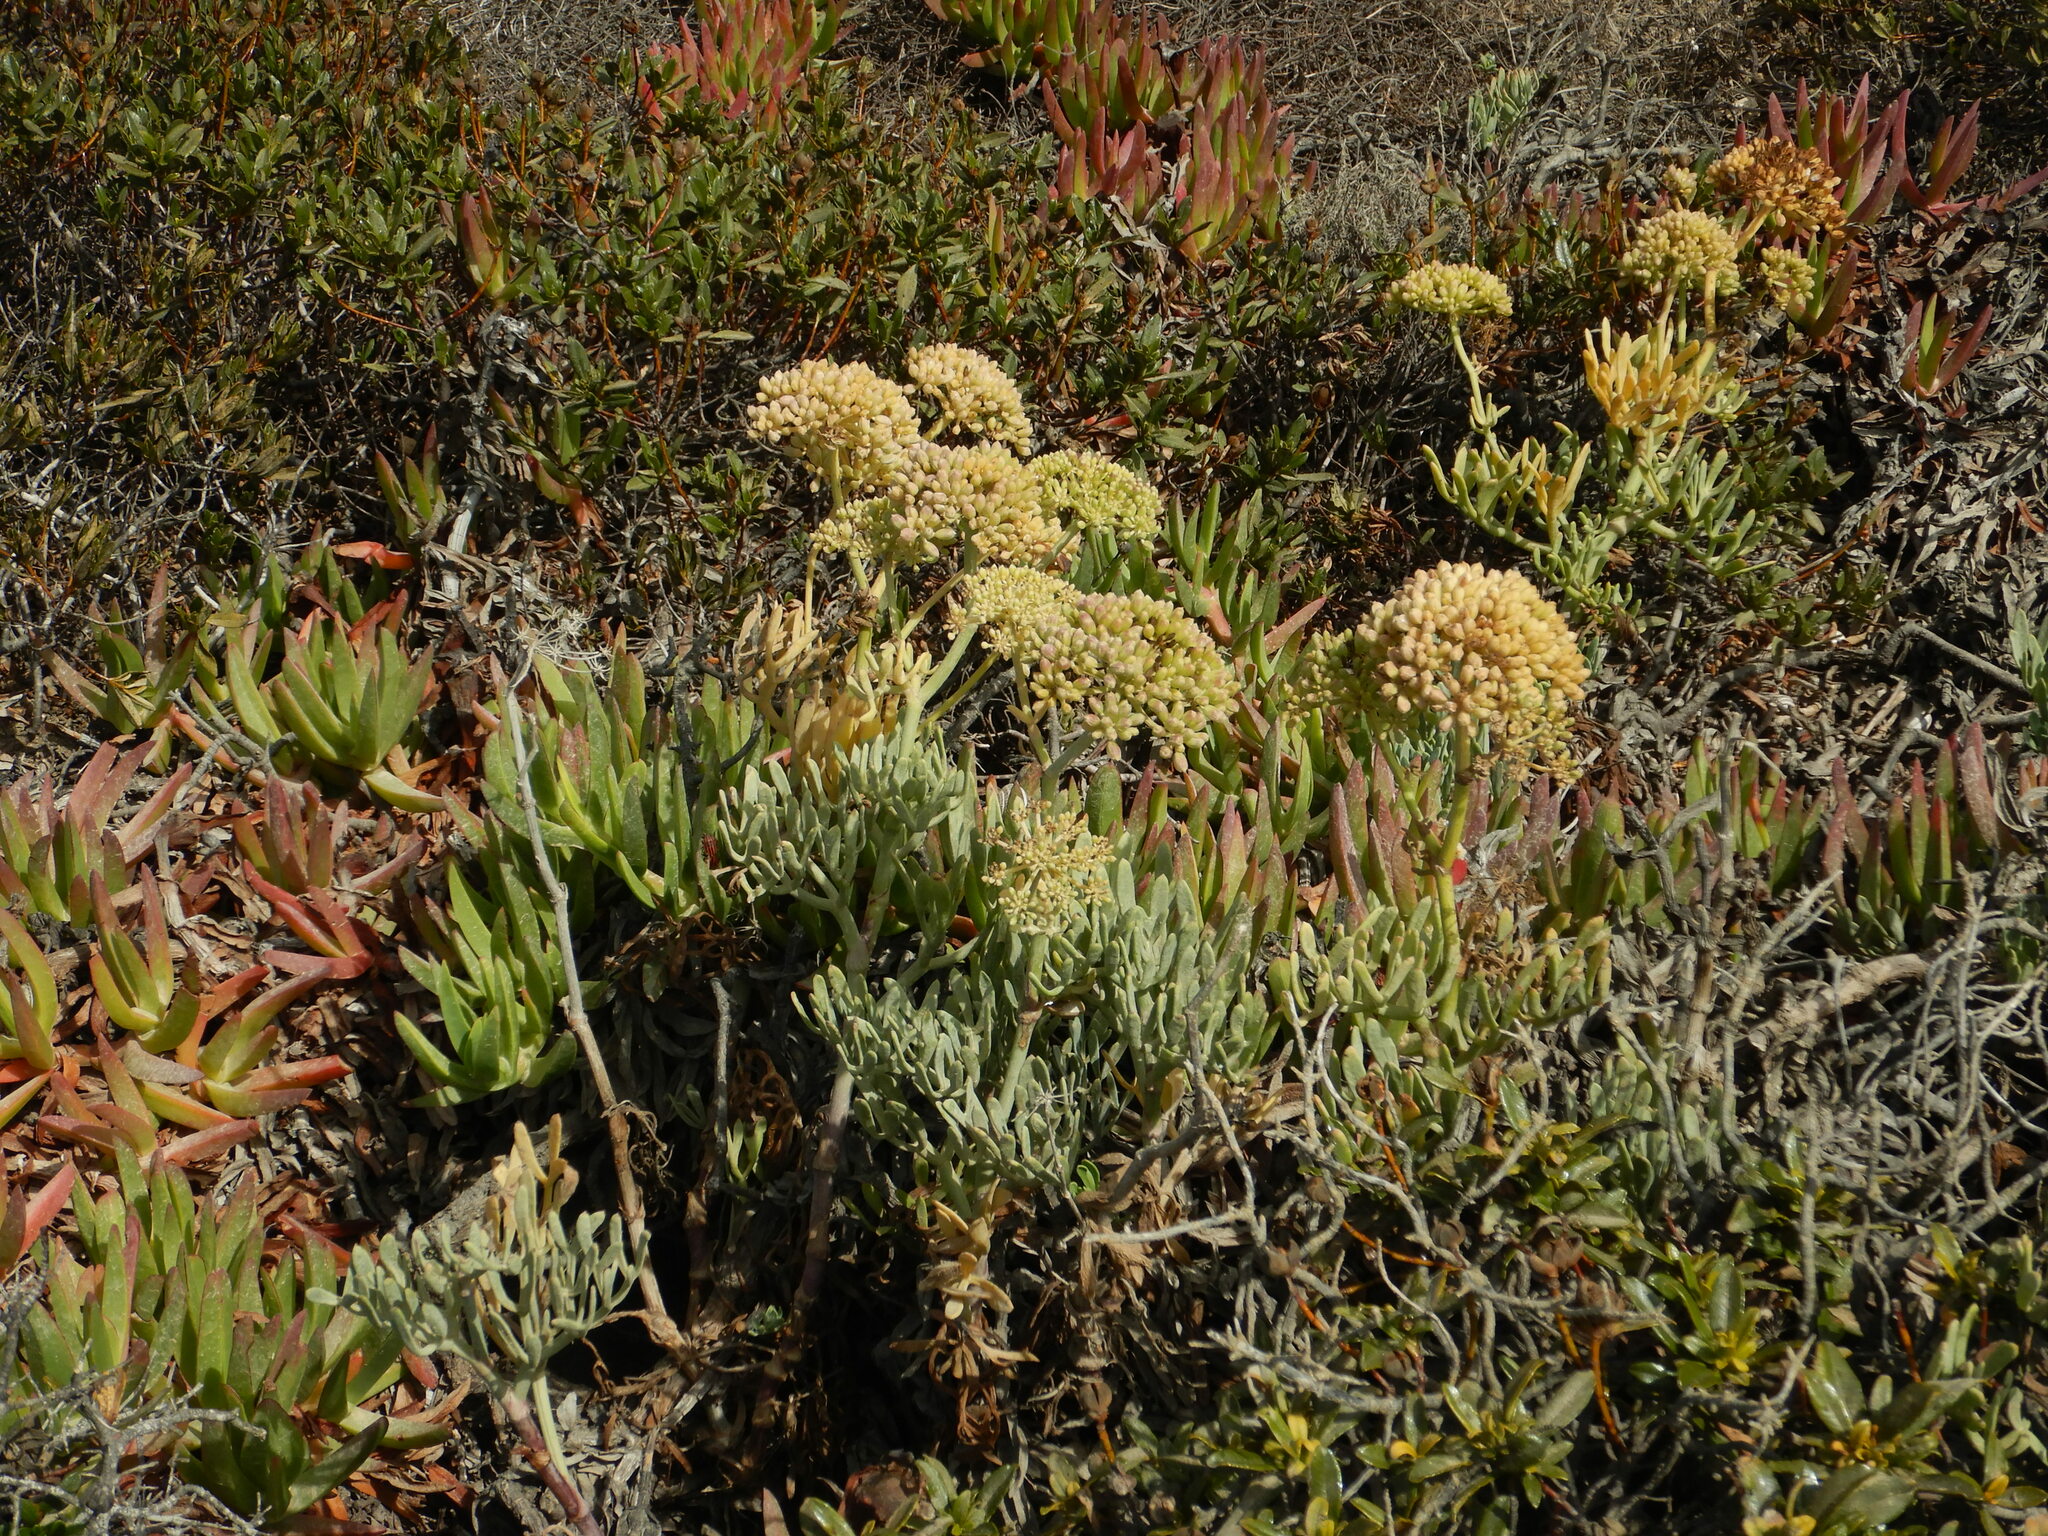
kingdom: Plantae
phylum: Tracheophyta
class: Magnoliopsida
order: Apiales
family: Apiaceae
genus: Crithmum
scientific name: Crithmum maritimum
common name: Rock samphire
